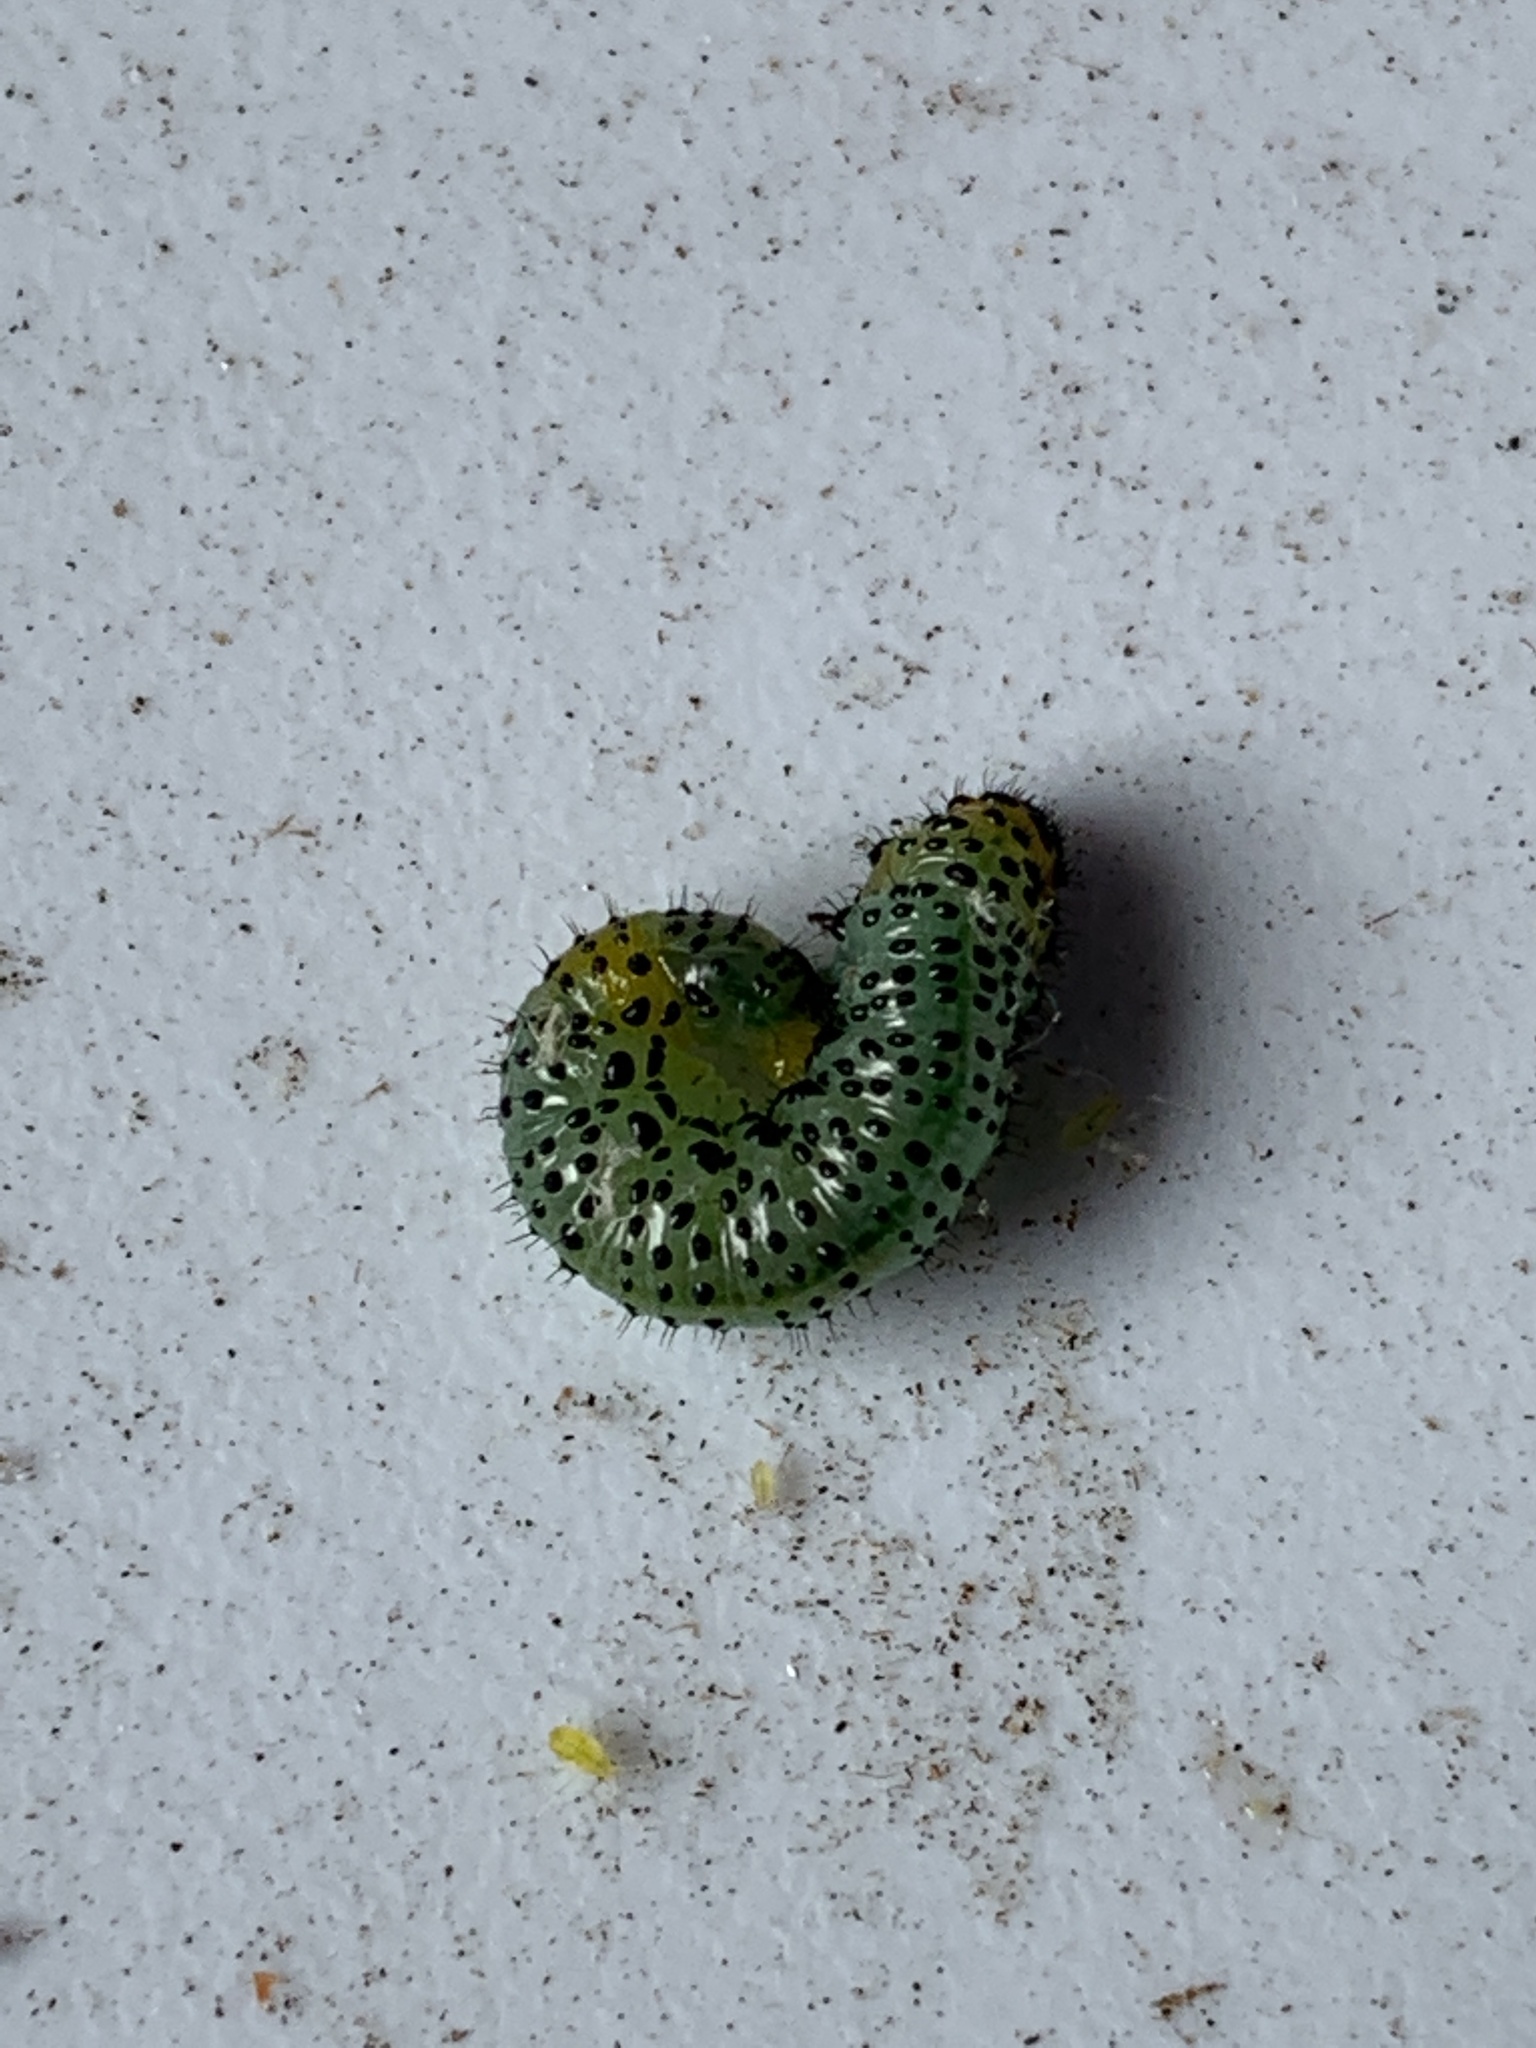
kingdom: Animalia
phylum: Arthropoda
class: Insecta
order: Hymenoptera
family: Tenthredinidae
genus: Nematus
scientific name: Nematus ribesii
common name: Imported currantworm
